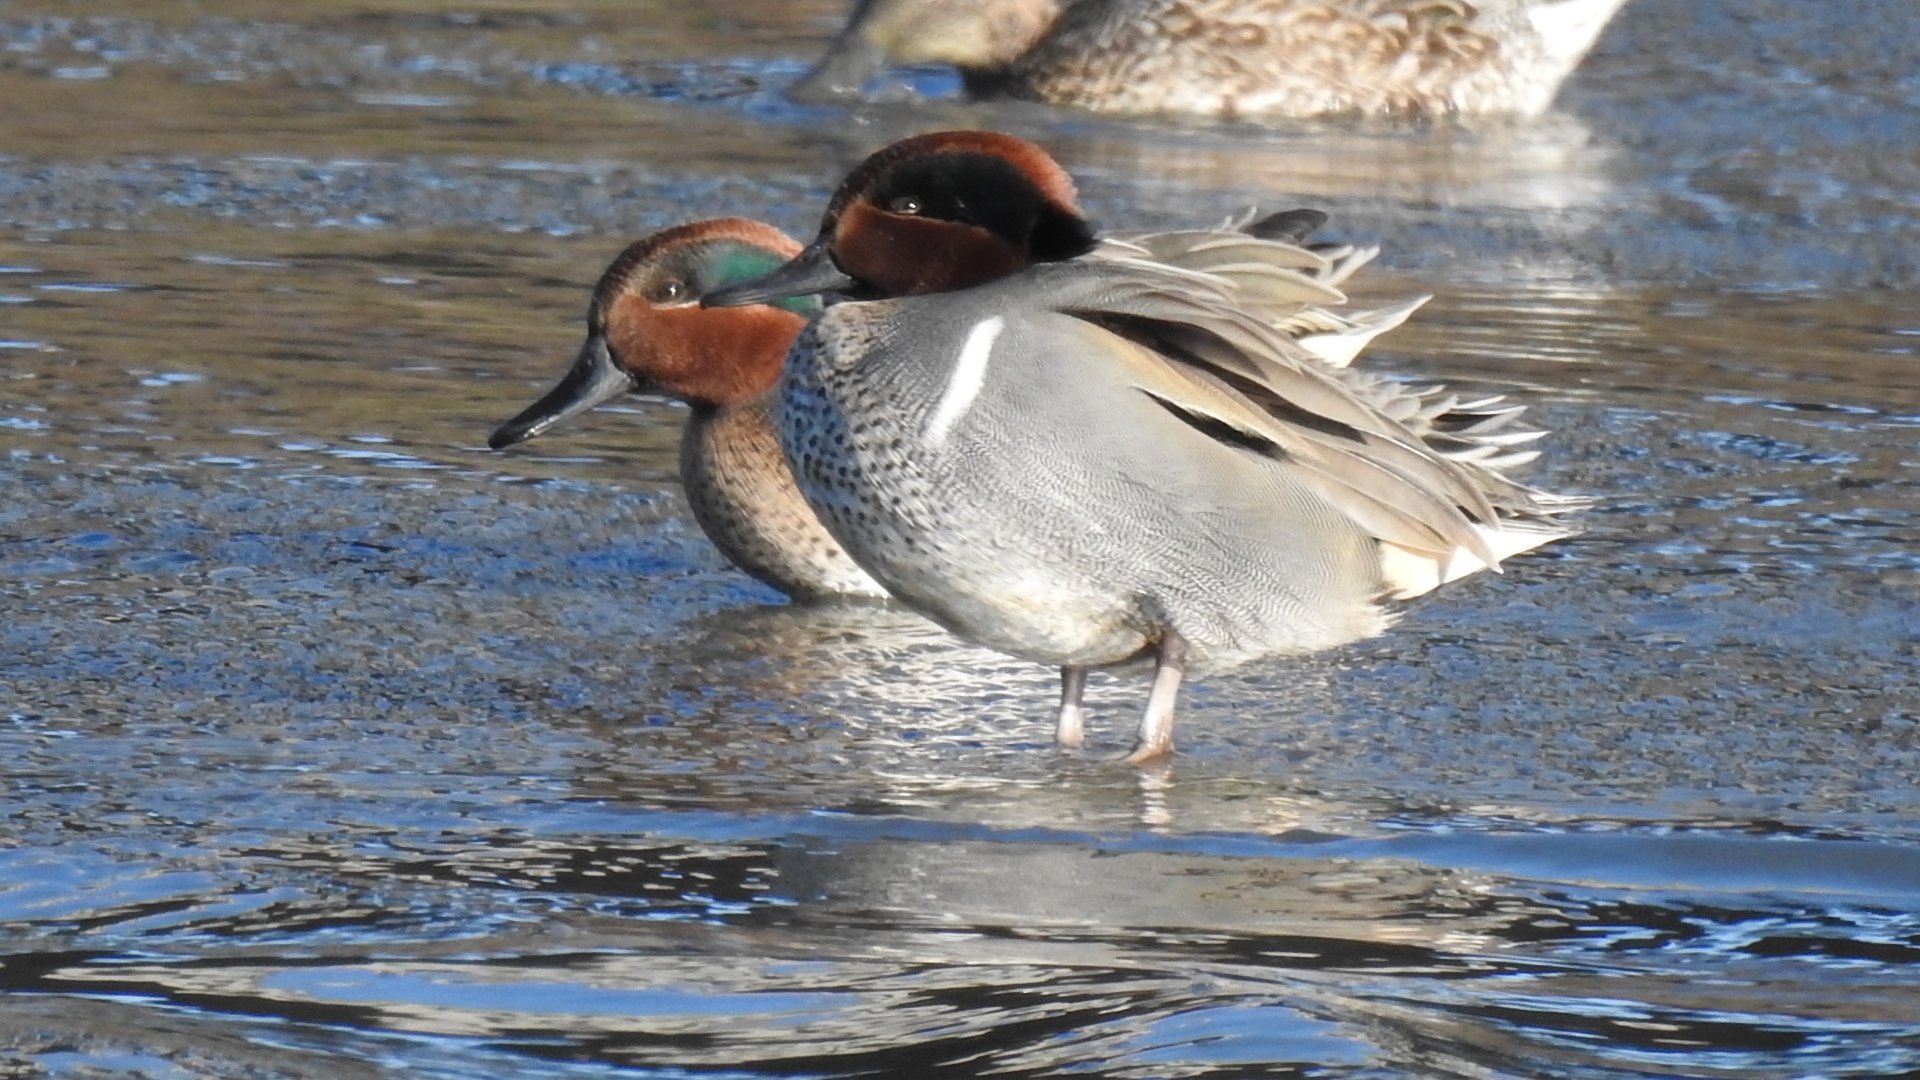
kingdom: Animalia
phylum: Chordata
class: Aves
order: Anseriformes
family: Anatidae
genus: Anas
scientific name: Anas crecca
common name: Eurasian teal
